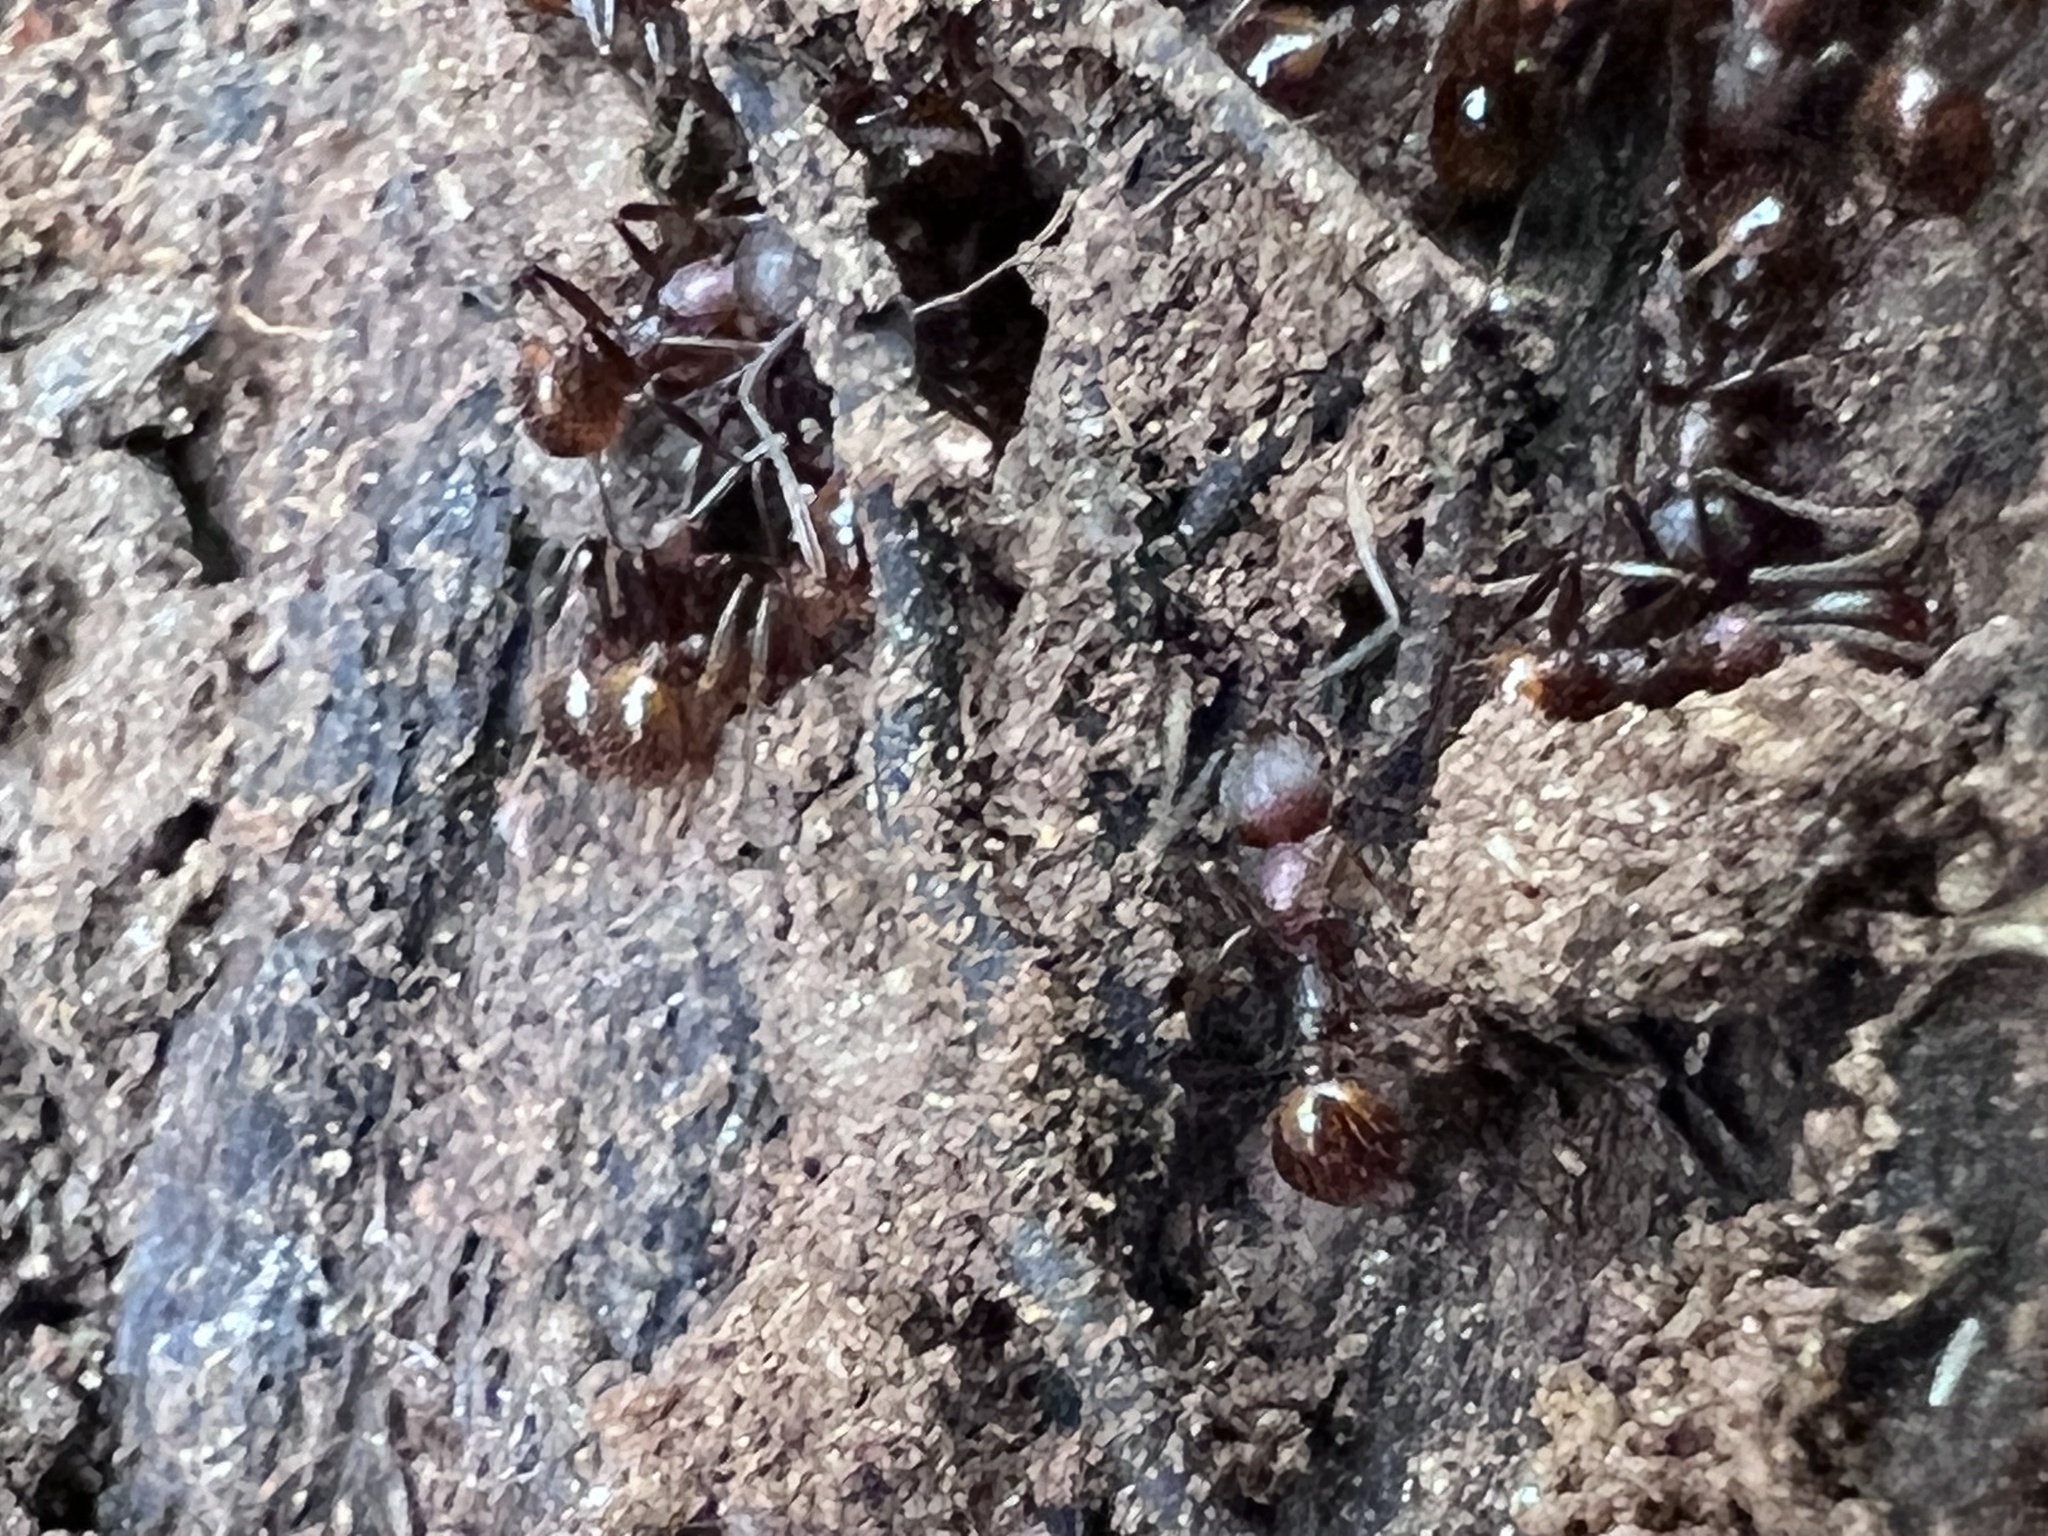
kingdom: Animalia
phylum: Arthropoda
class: Insecta
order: Hymenoptera
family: Formicidae
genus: Aphaenogaster
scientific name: Aphaenogaster fulva
